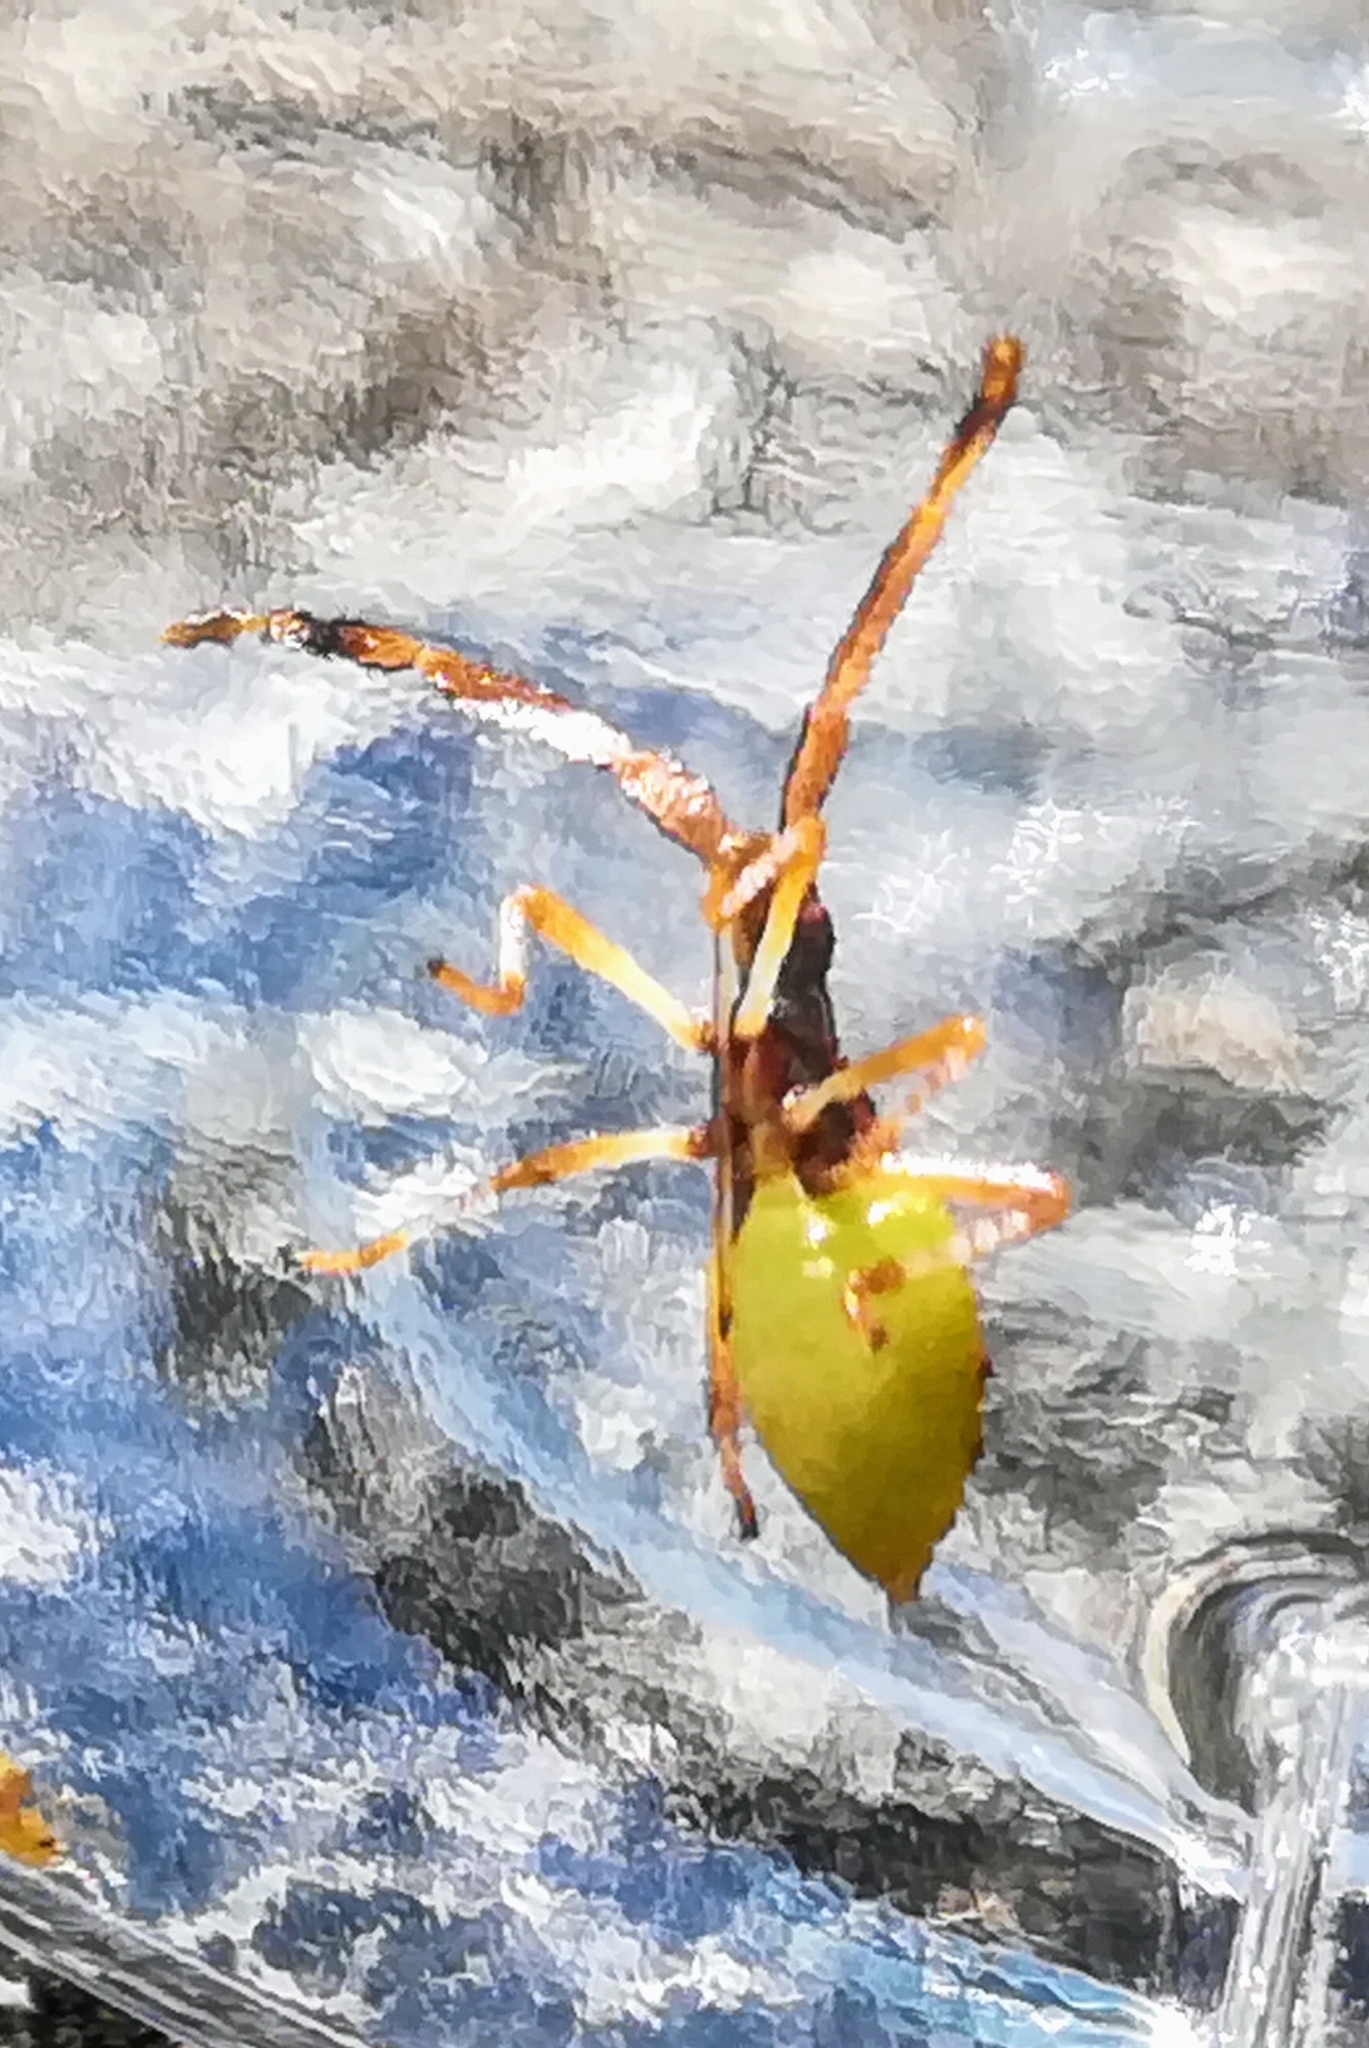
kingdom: Animalia
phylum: Arthropoda
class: Insecta
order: Hemiptera
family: Coreidae
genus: Gonocerus
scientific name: Gonocerus acuteangulatus
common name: Box bug
